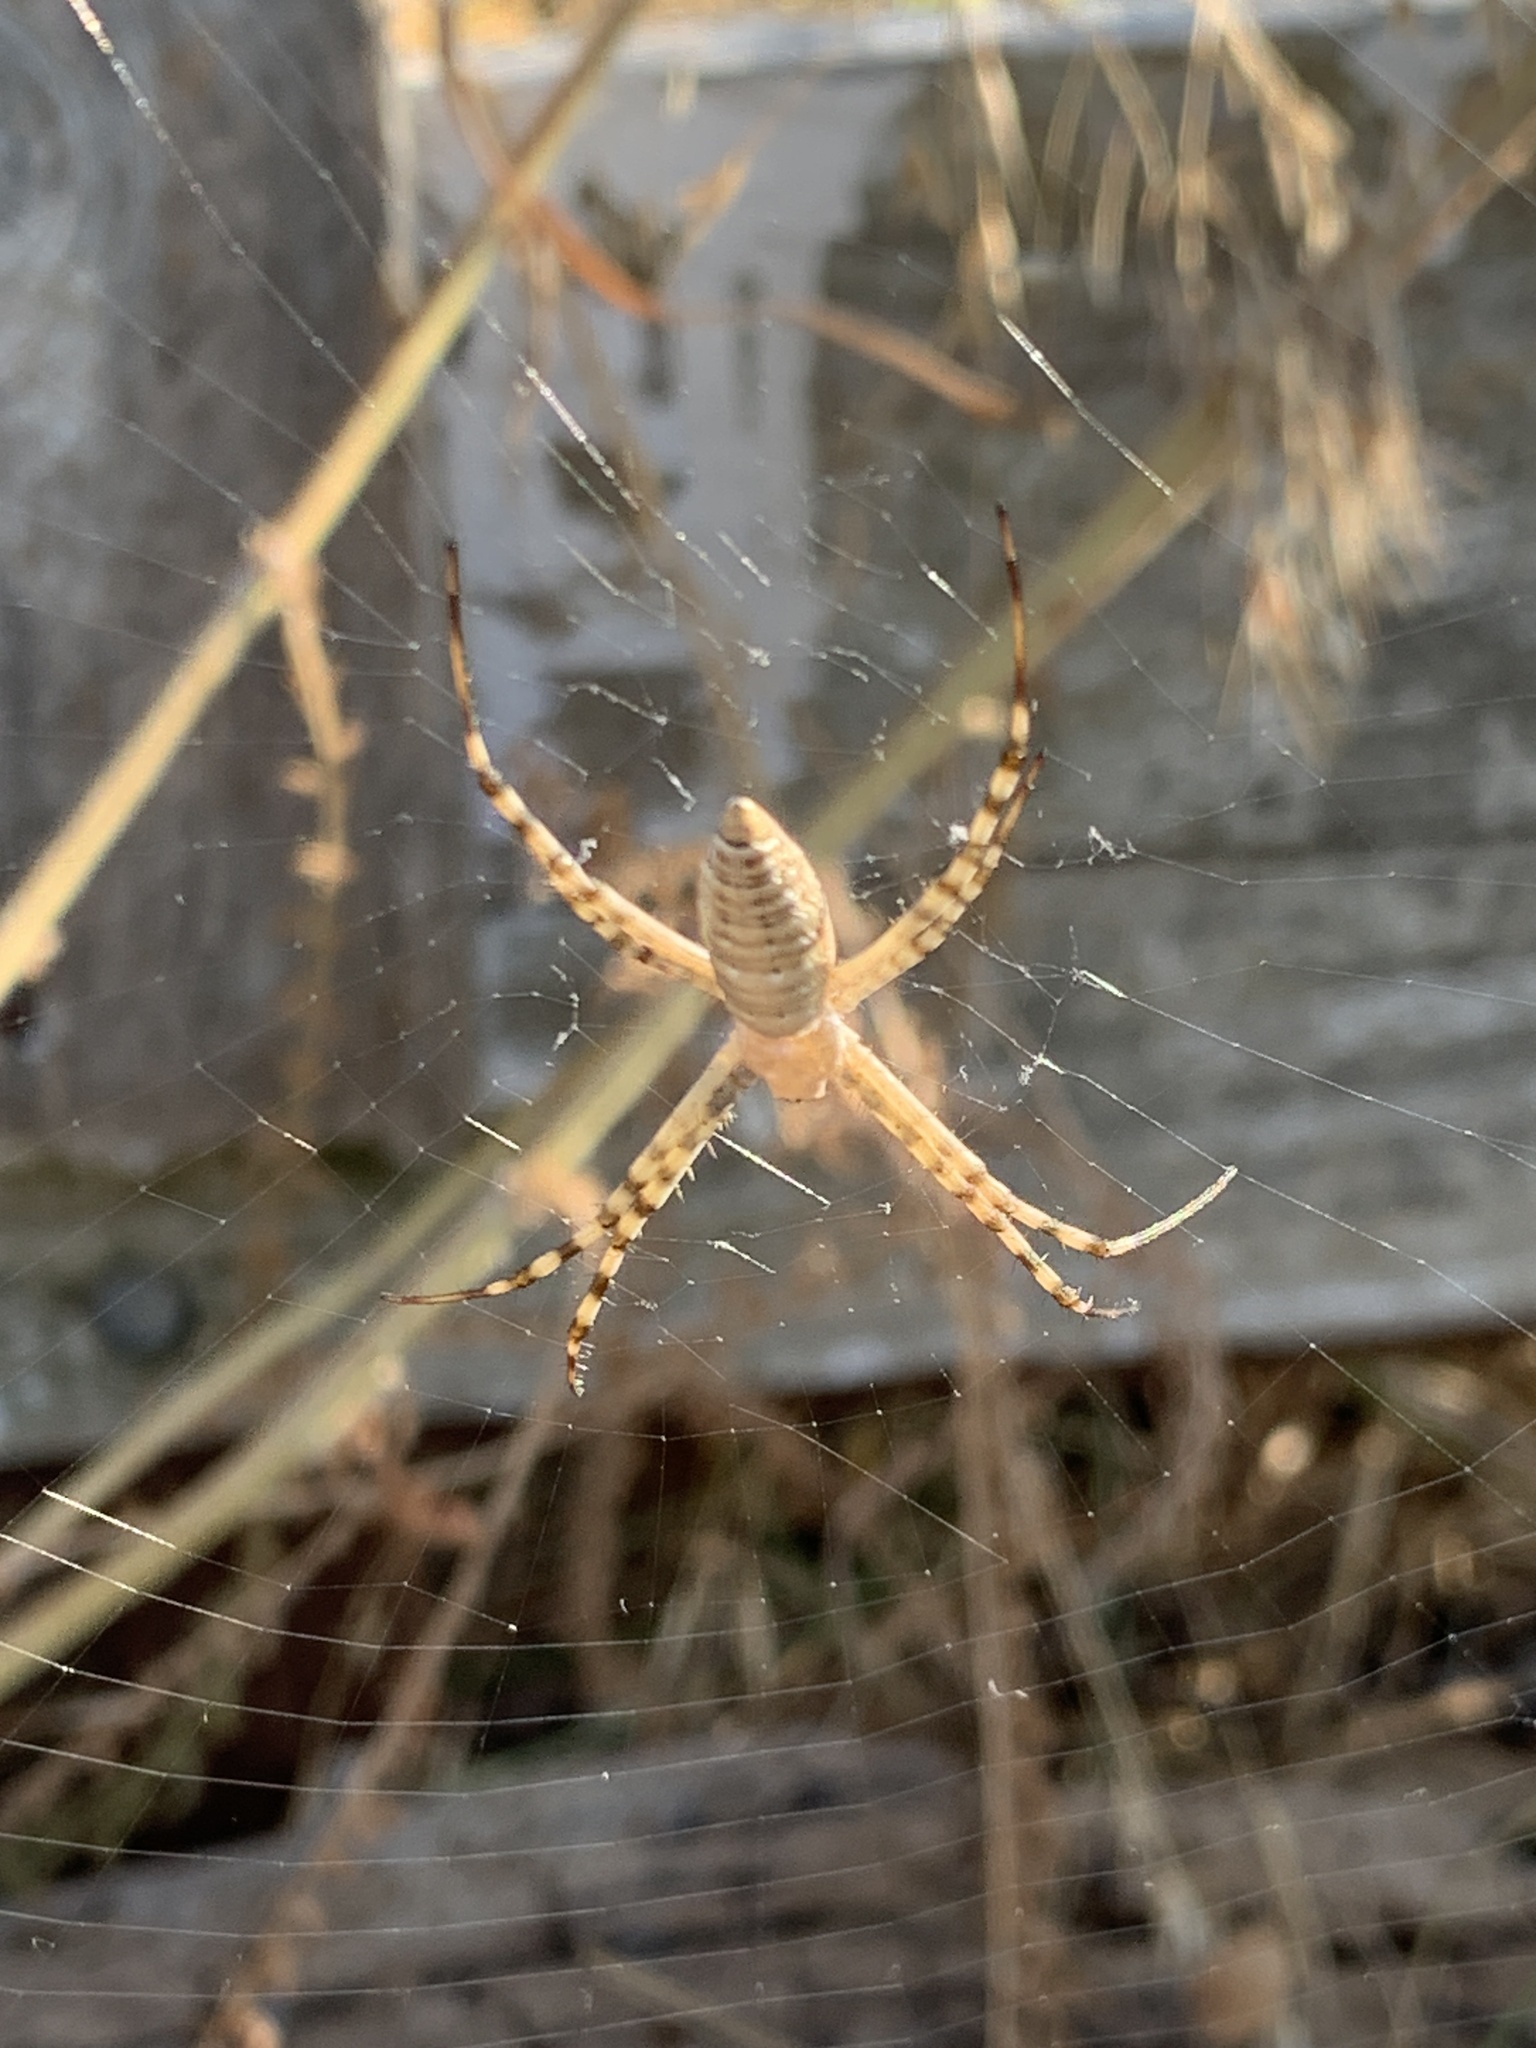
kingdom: Animalia
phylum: Arthropoda
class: Arachnida
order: Araneae
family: Araneidae
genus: Argiope
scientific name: Argiope trifasciata
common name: Banded garden spider
